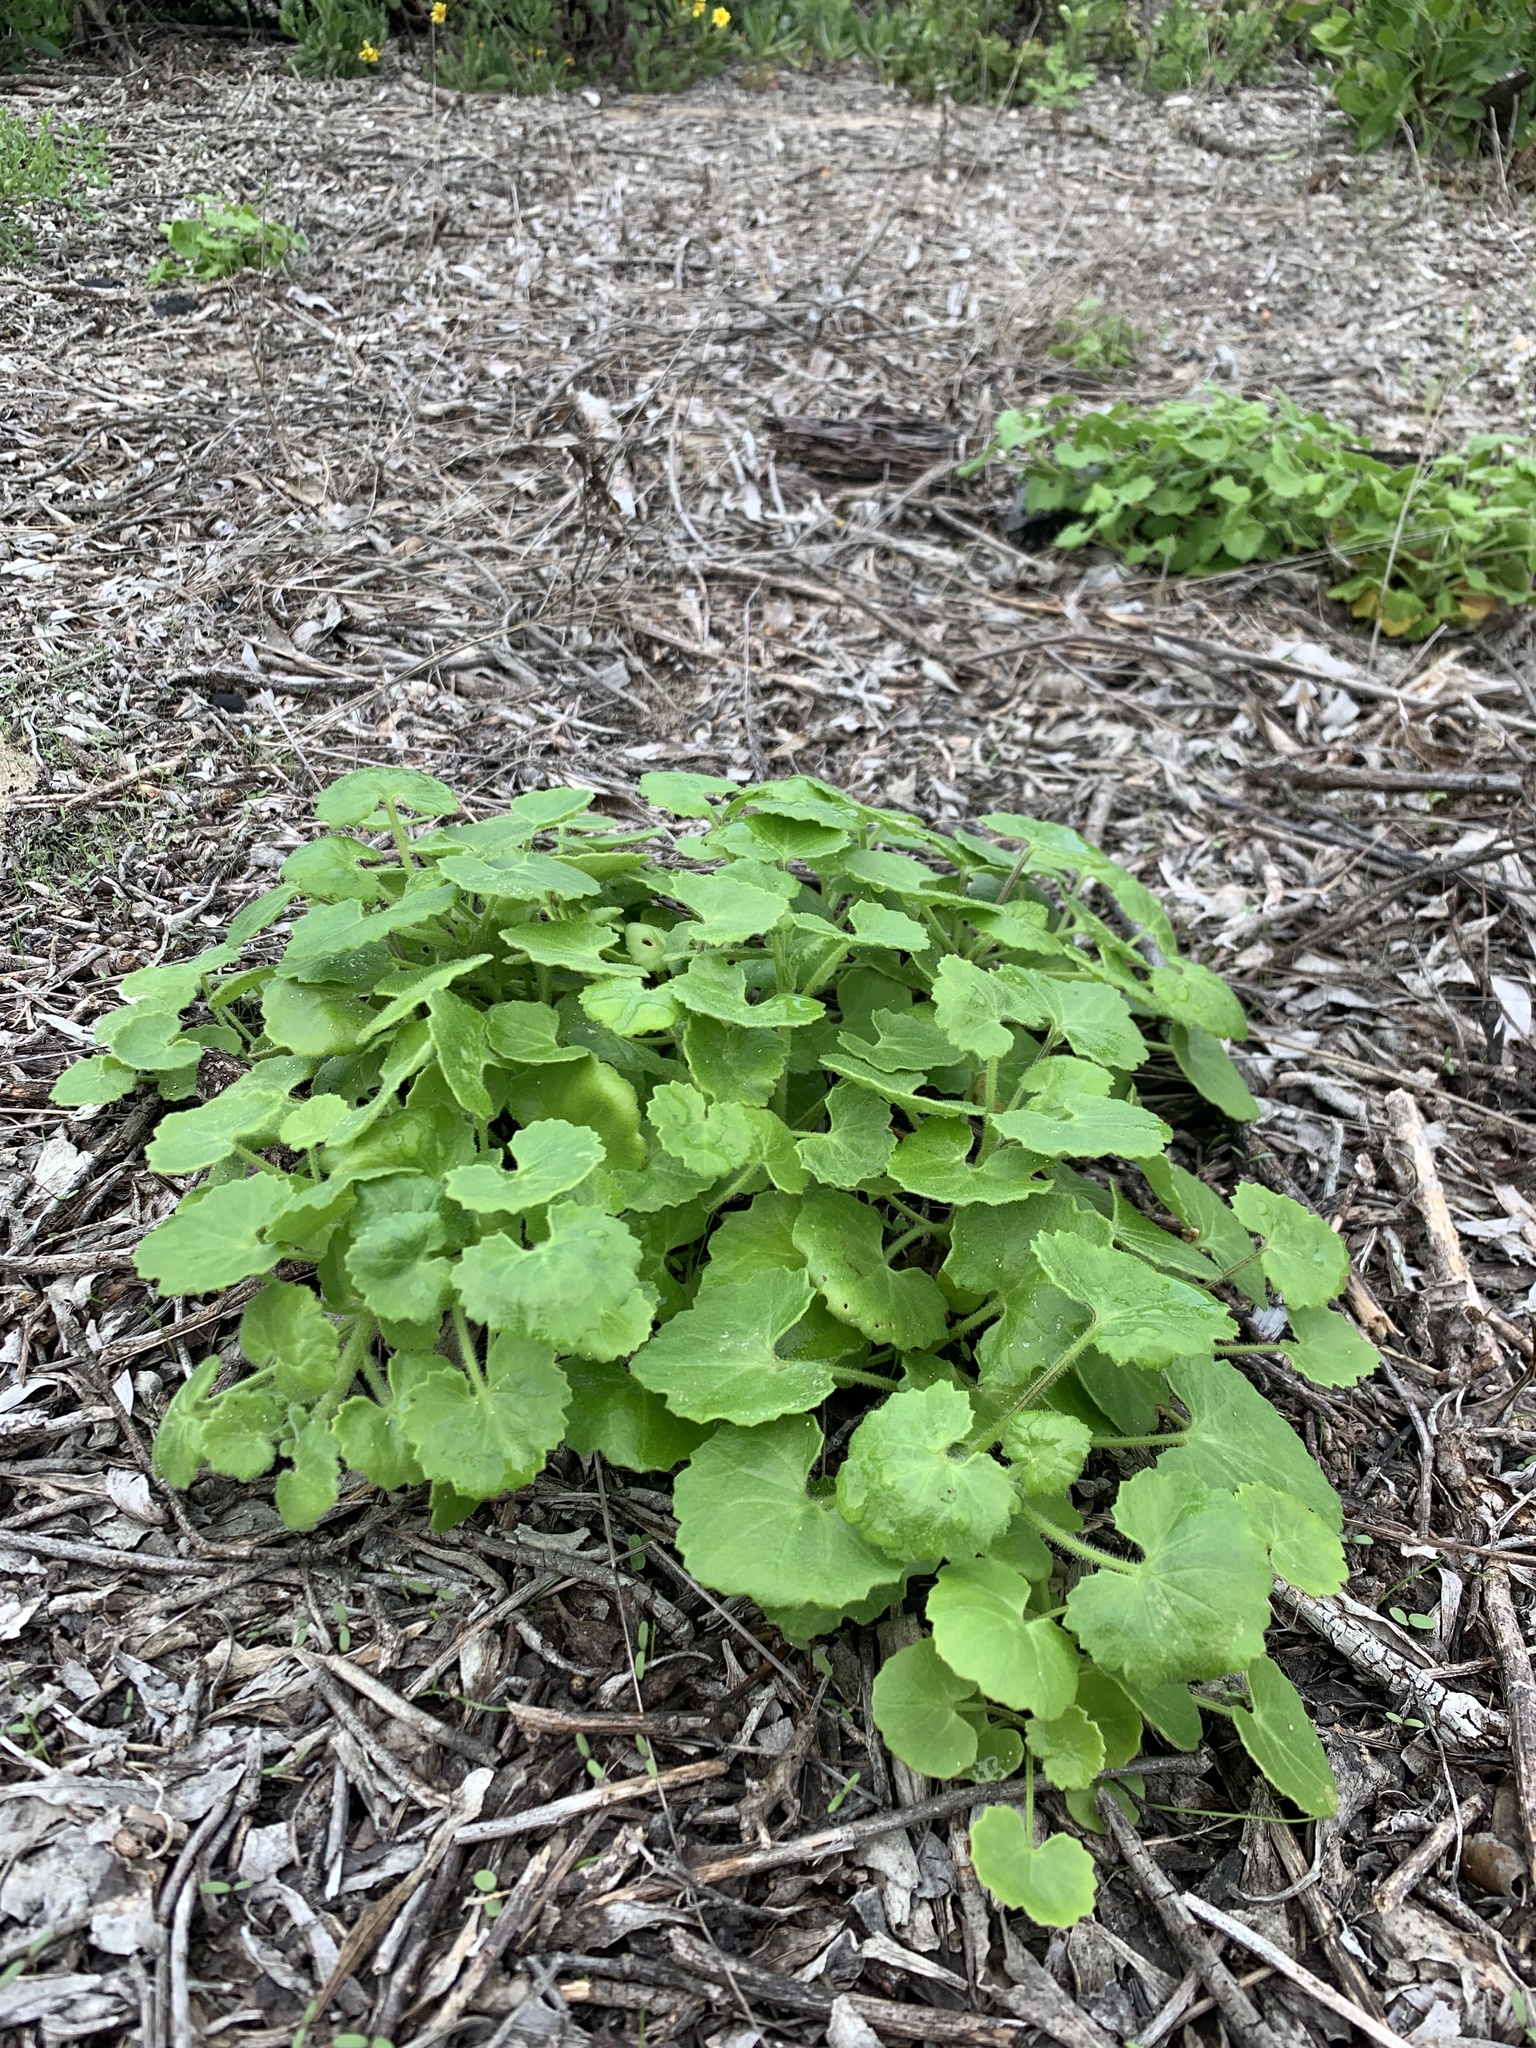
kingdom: Plantae
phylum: Tracheophyta
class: Magnoliopsida
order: Asterales
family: Asteraceae
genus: Cineraria
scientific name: Cineraria geifolia
